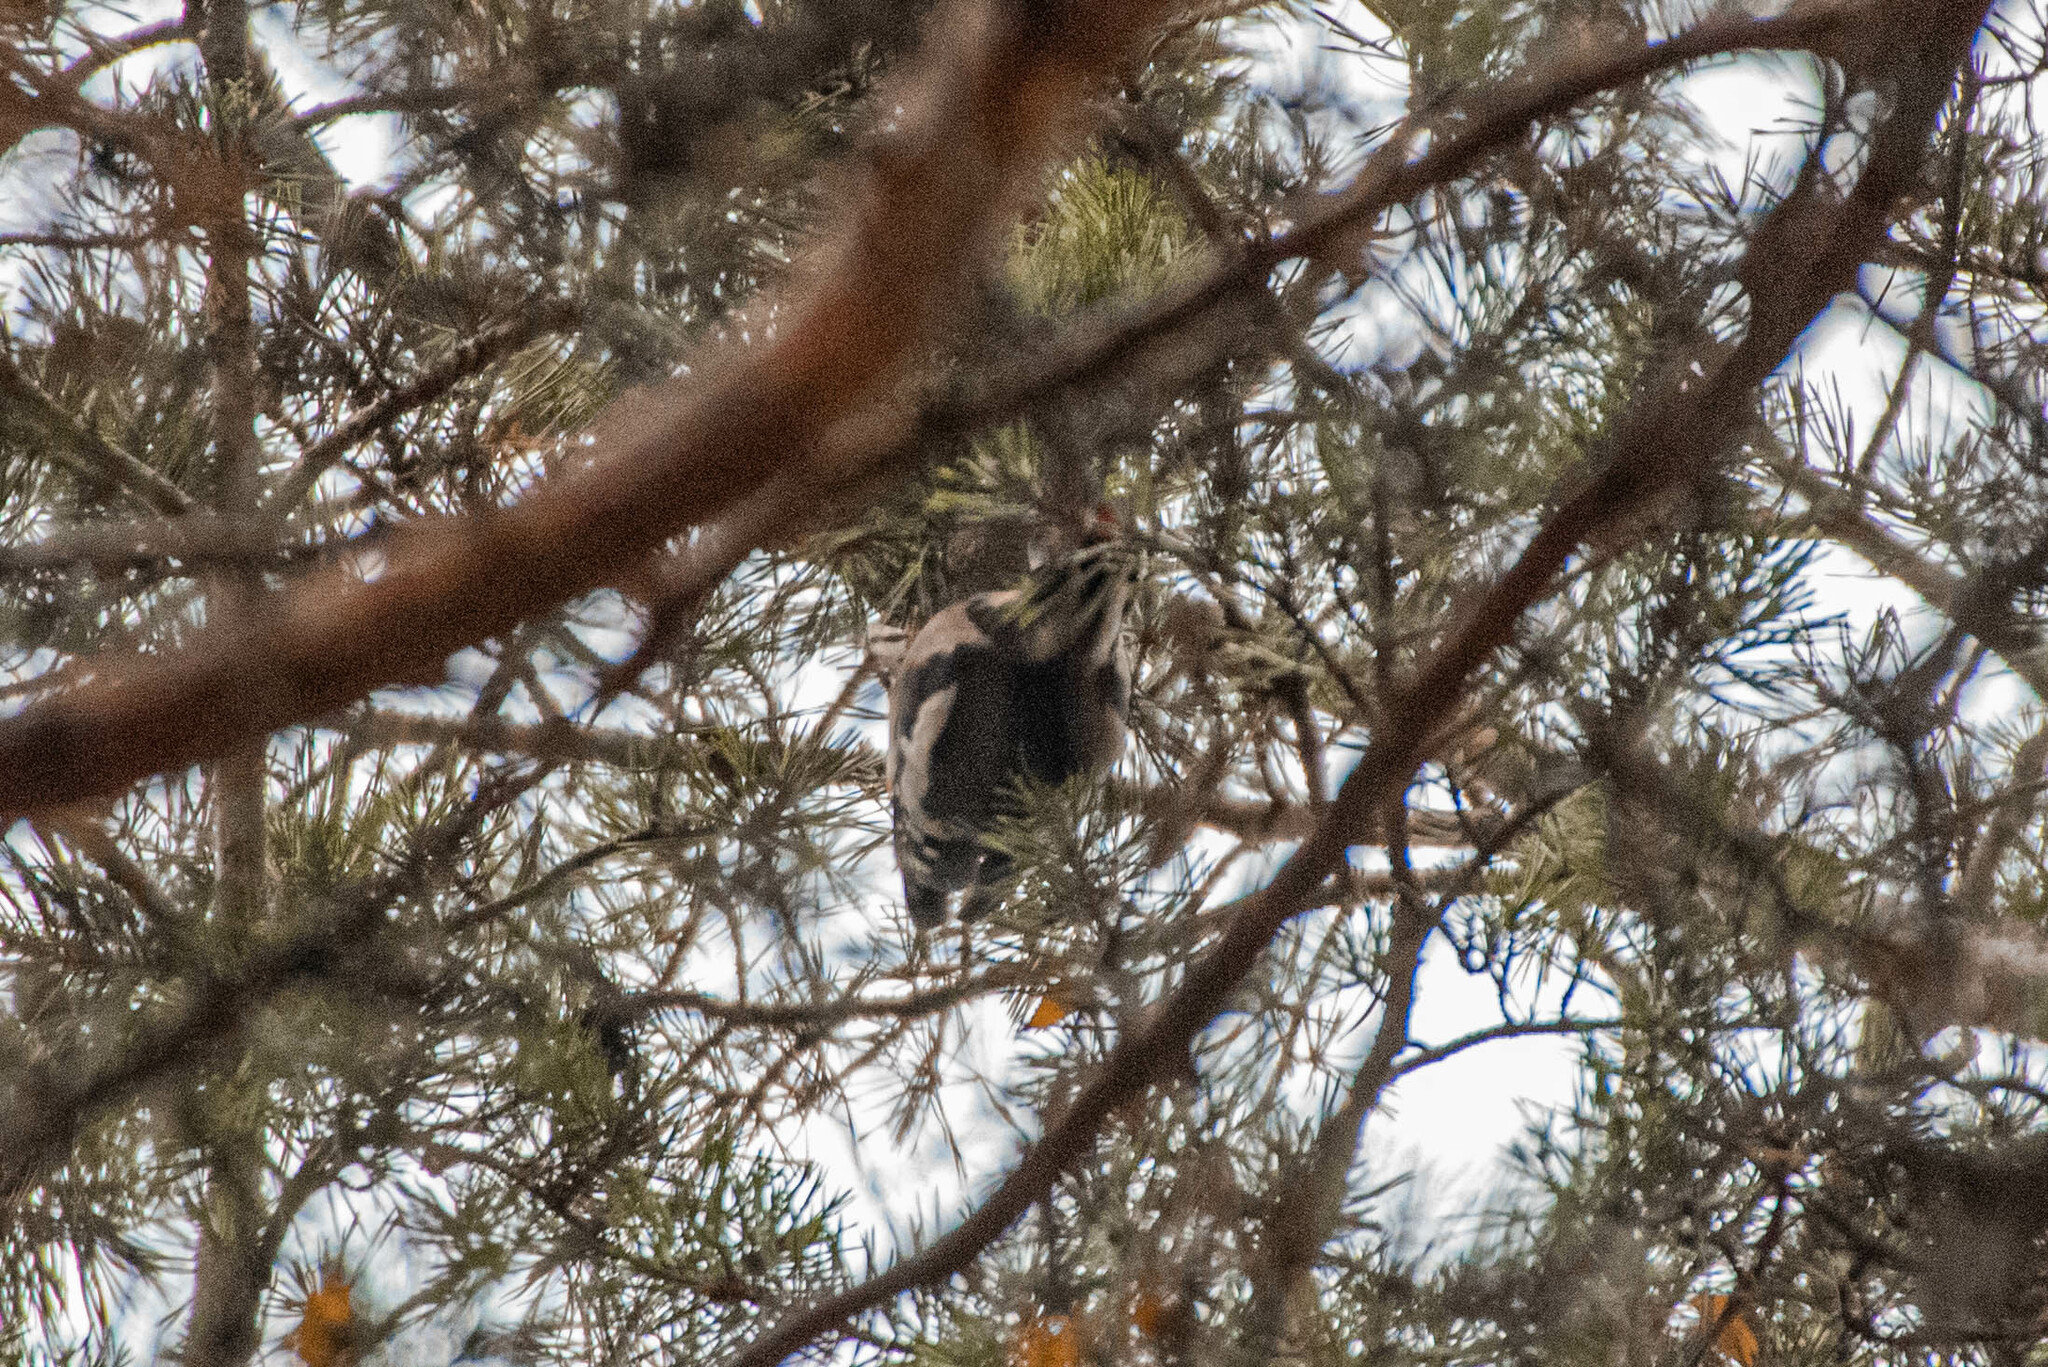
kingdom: Animalia
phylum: Chordata
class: Aves
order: Piciformes
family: Picidae
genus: Dendrocopos
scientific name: Dendrocopos major
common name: Great spotted woodpecker
